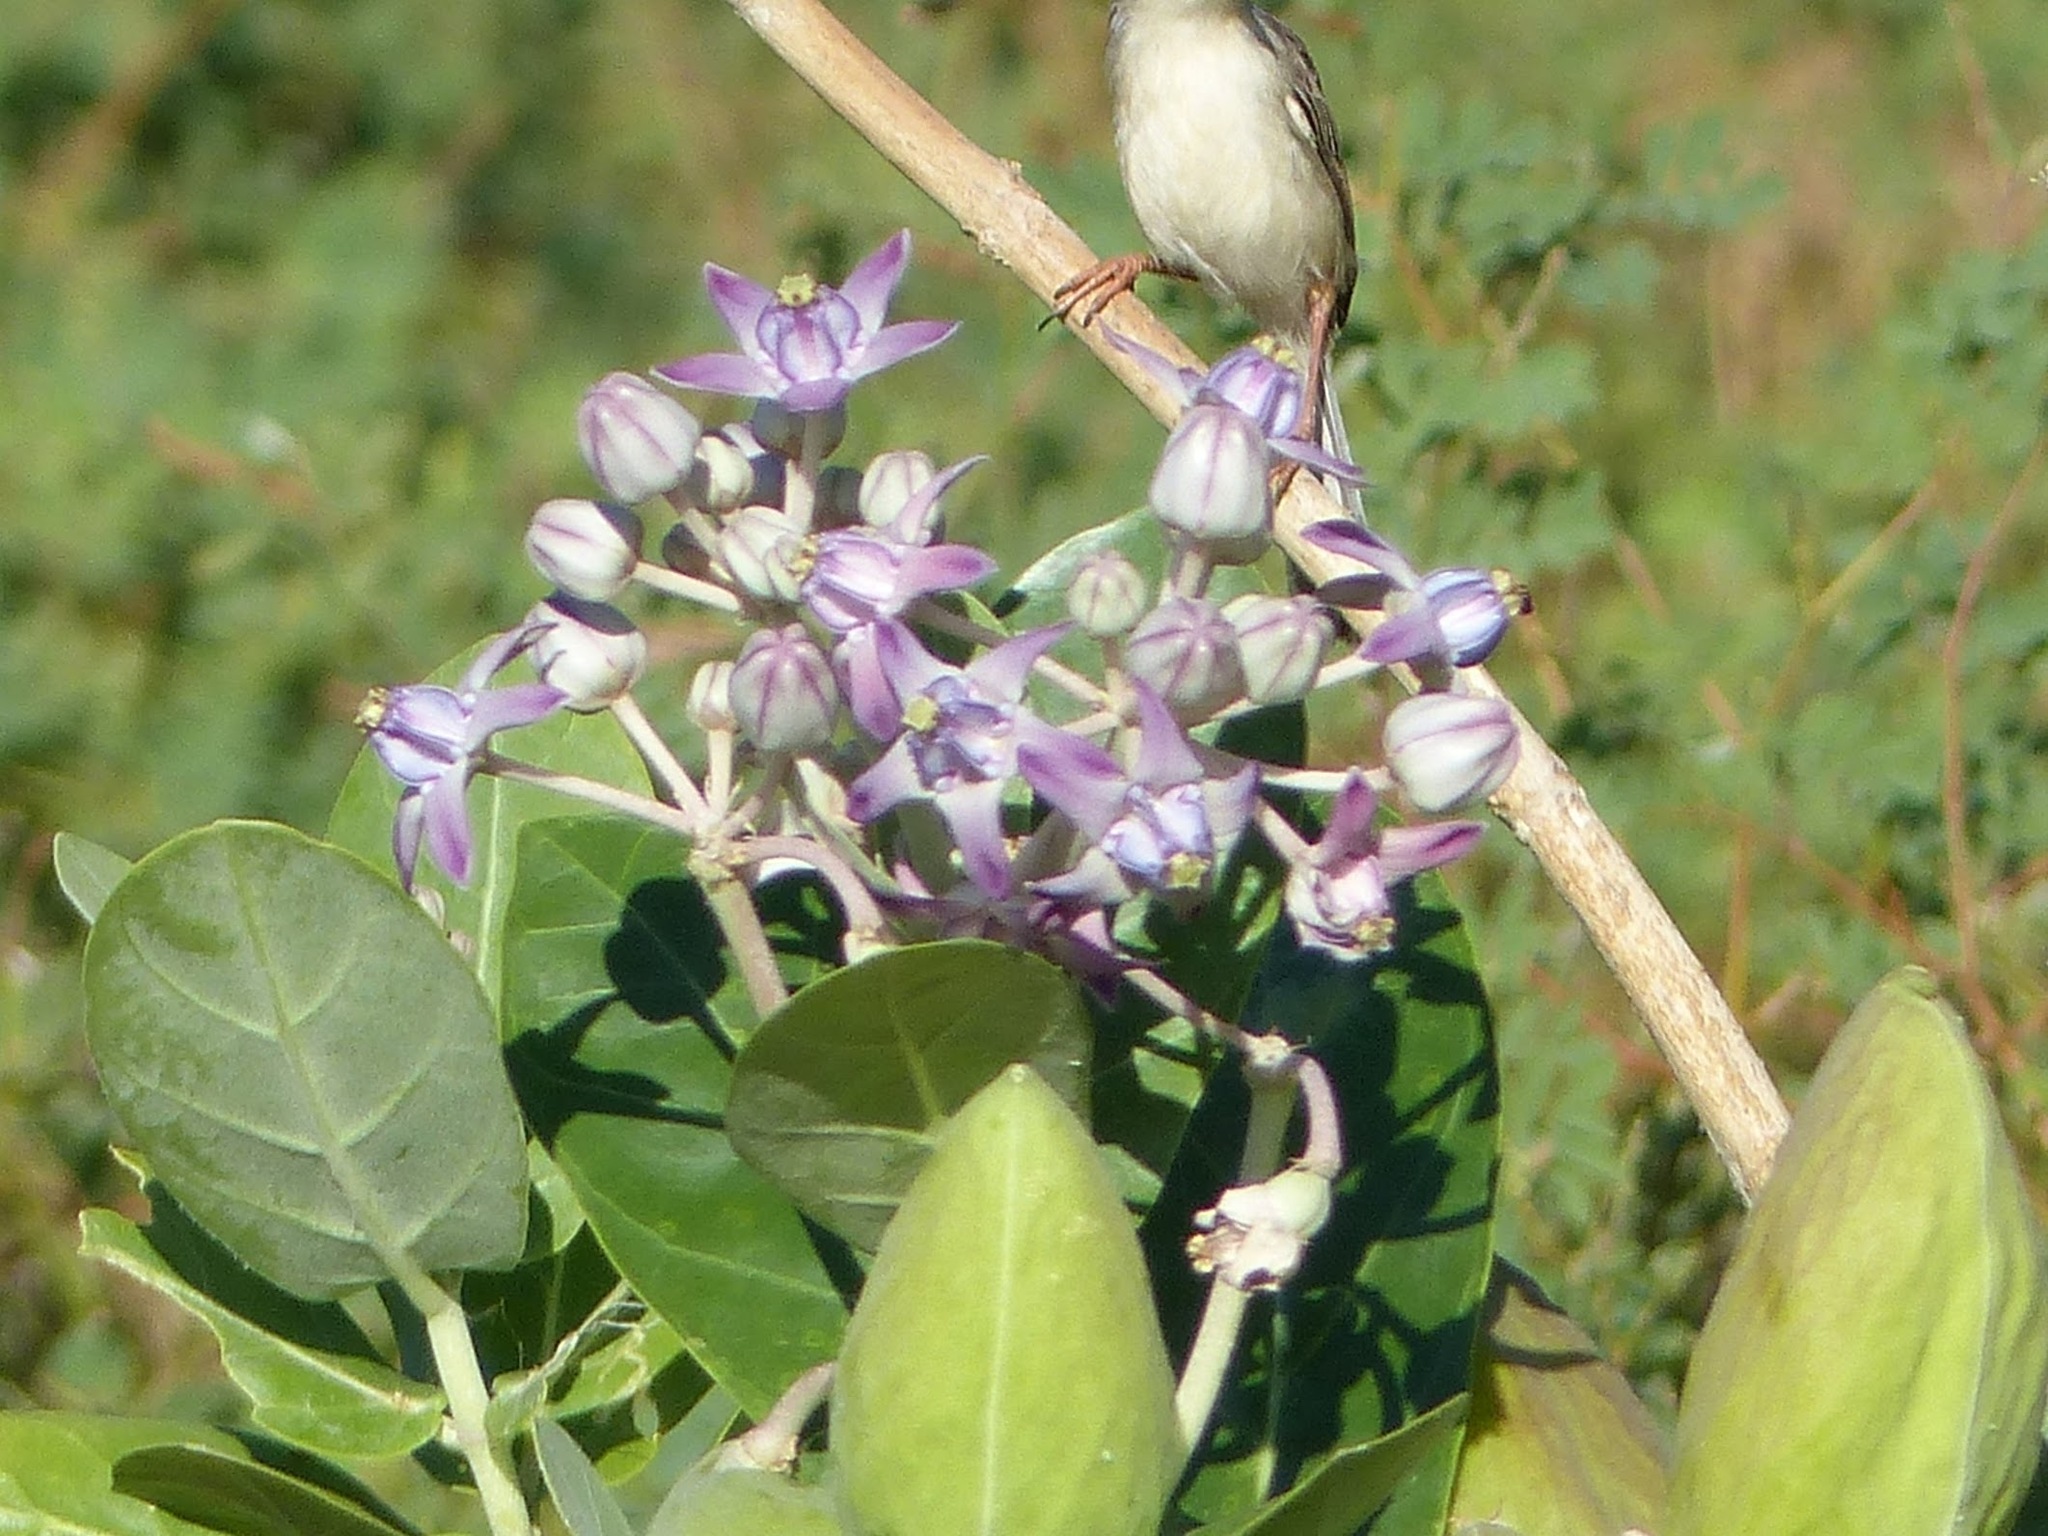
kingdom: Plantae
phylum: Tracheophyta
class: Magnoliopsida
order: Gentianales
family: Apocynaceae
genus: Calotropis
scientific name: Calotropis gigantea
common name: Crown flower
